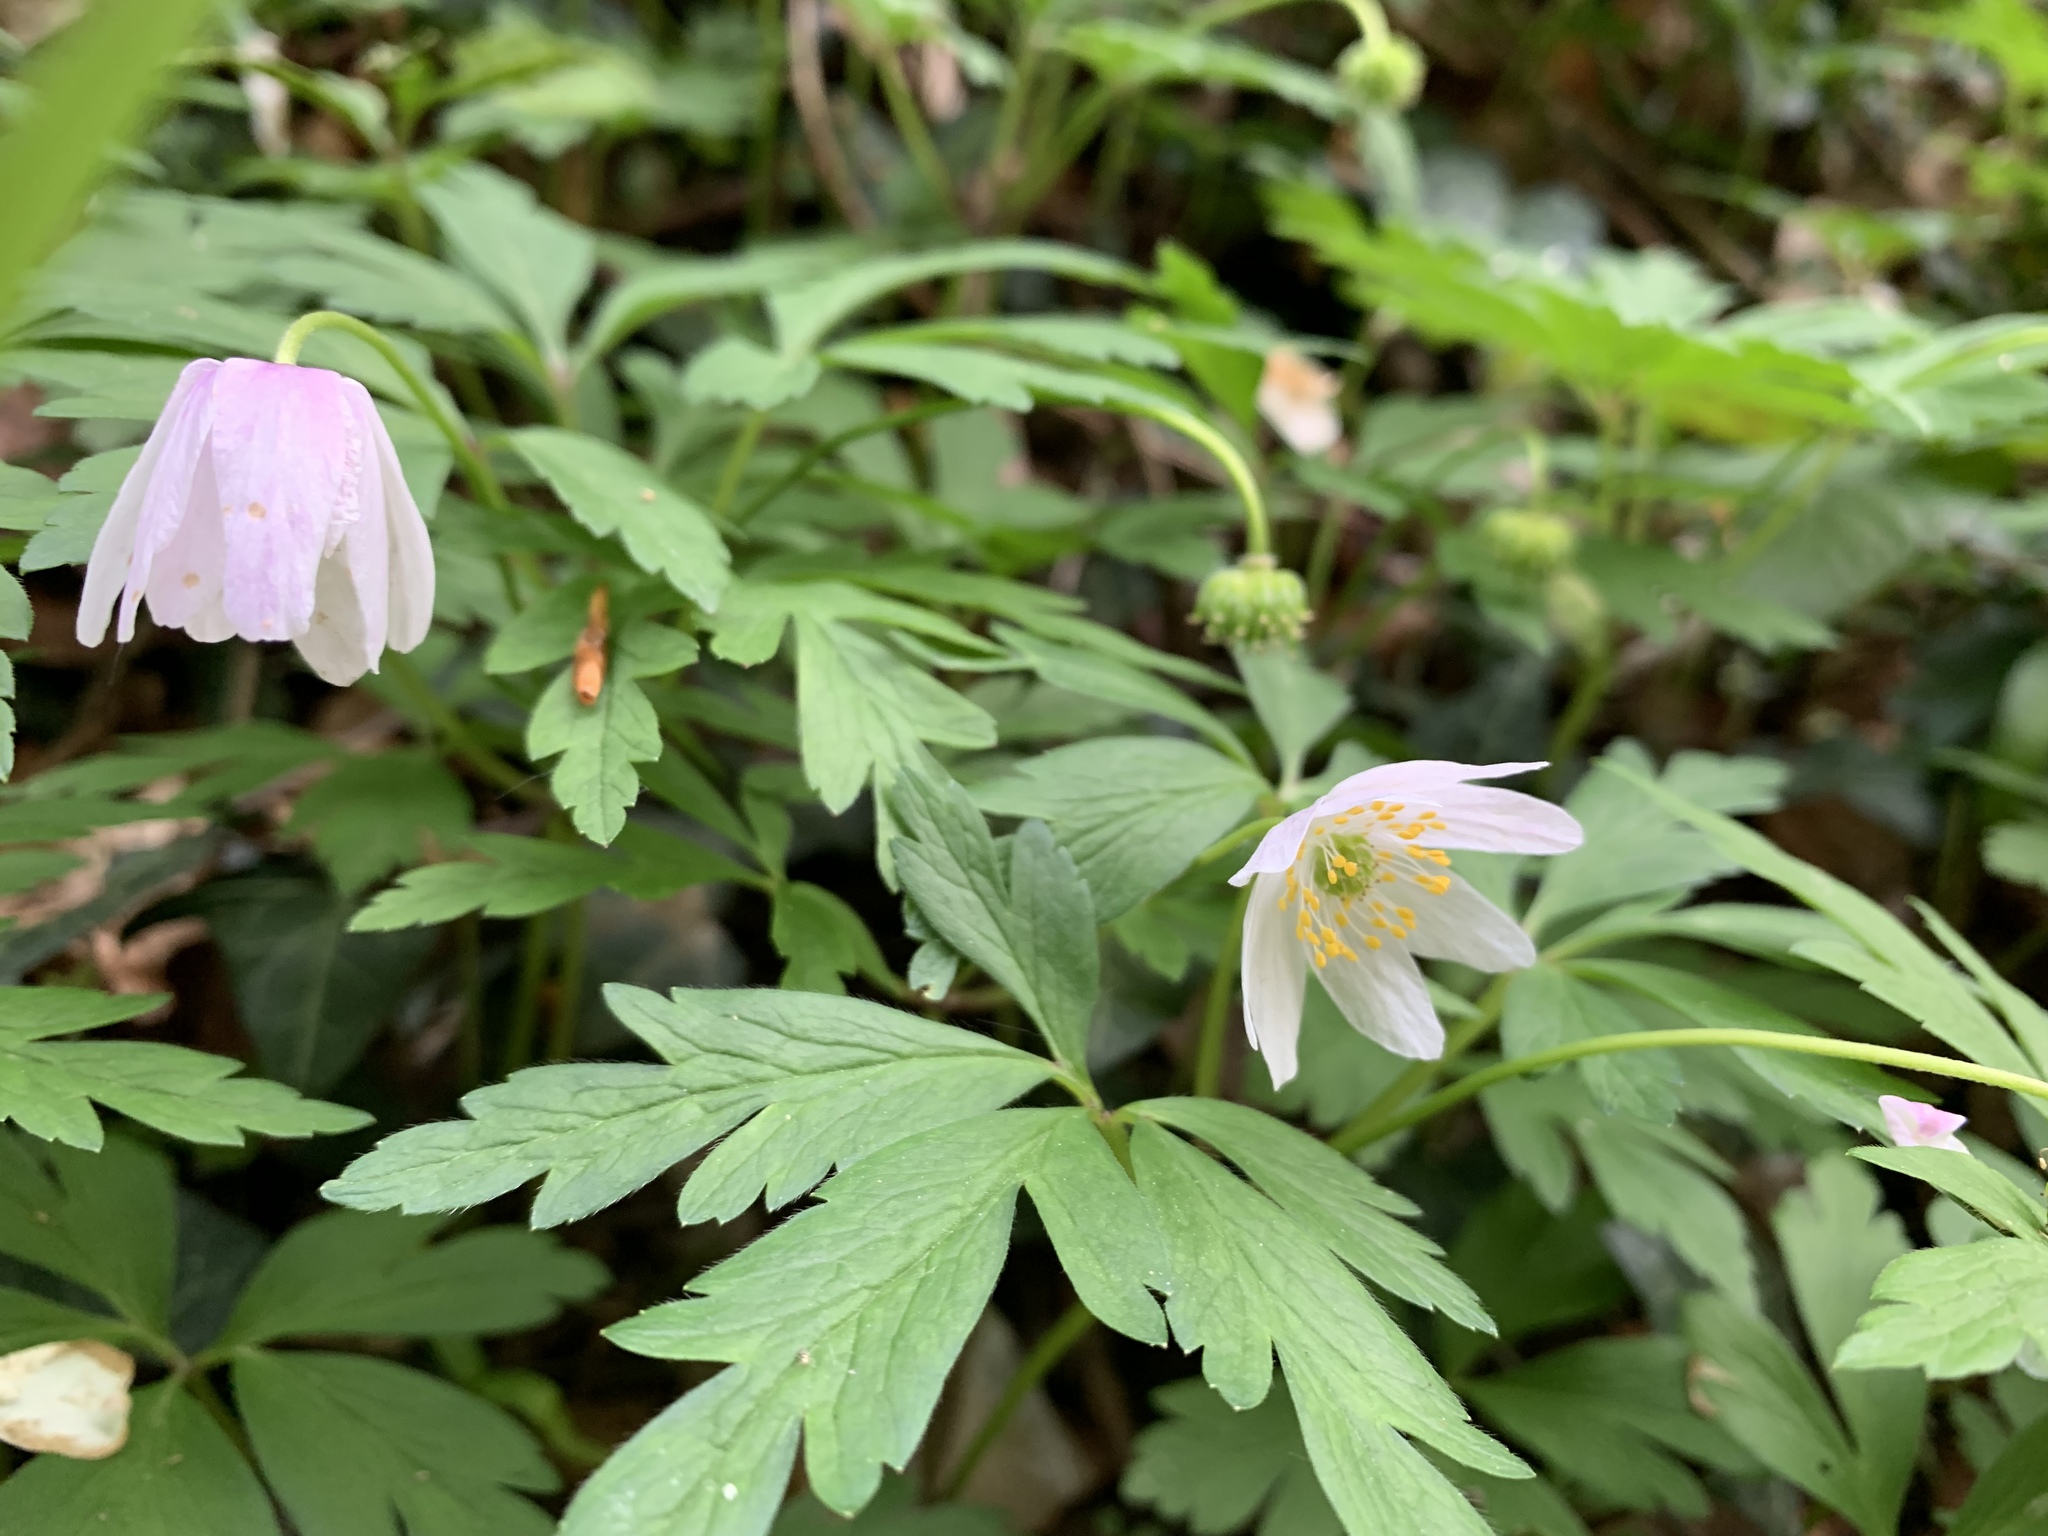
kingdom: Plantae
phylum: Tracheophyta
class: Magnoliopsida
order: Ranunculales
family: Ranunculaceae
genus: Anemone
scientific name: Anemone nemorosa
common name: Wood anemone
